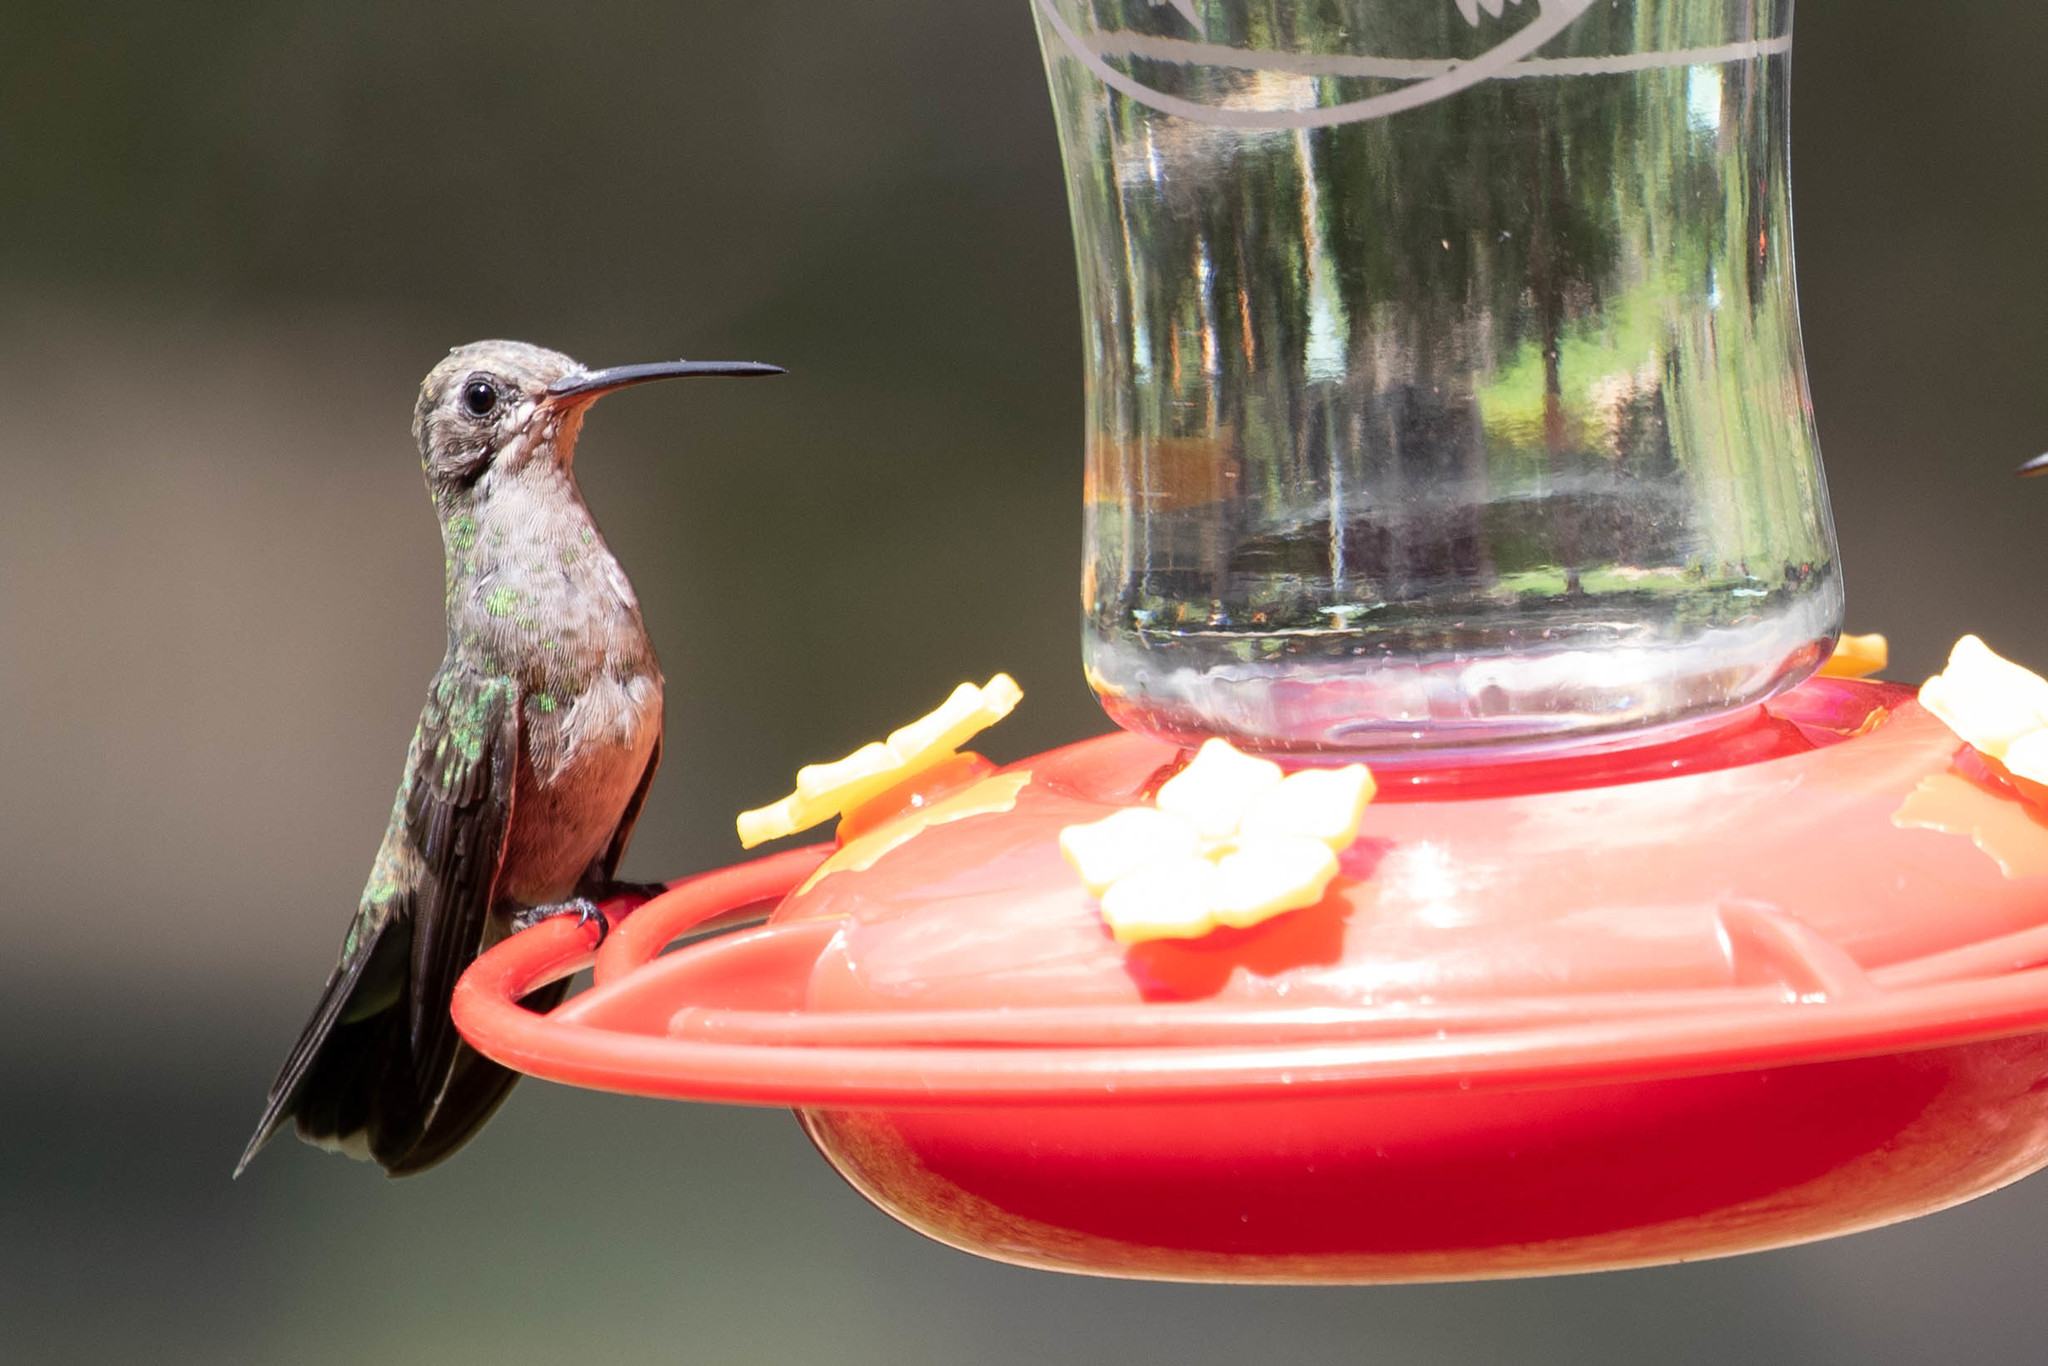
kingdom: Animalia
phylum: Chordata
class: Aves
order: Apodiformes
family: Trochilidae
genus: Cynanthus
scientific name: Cynanthus latirostris
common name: Broad-billed hummingbird
